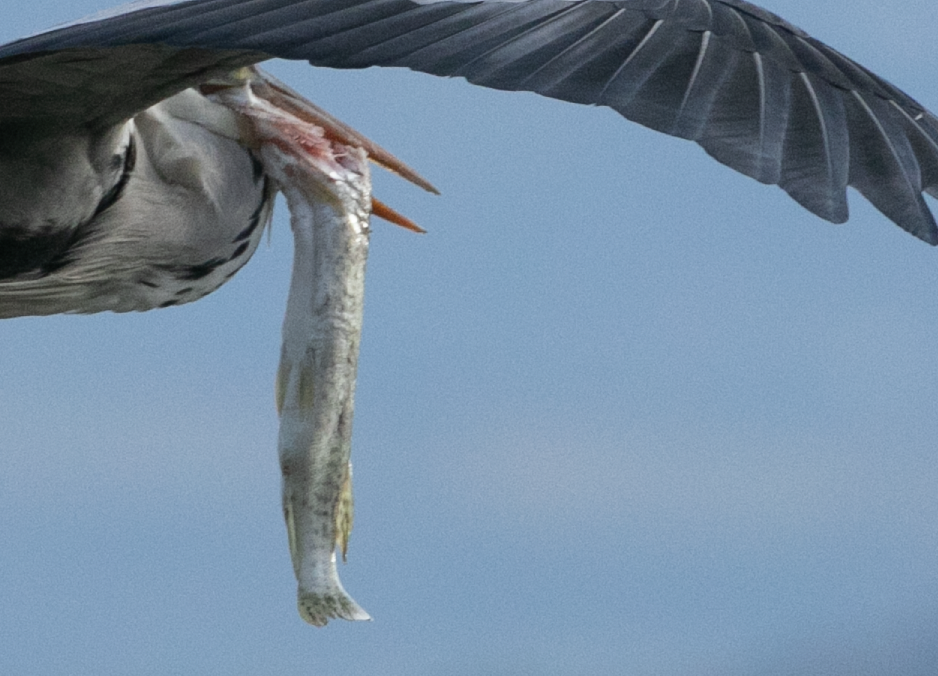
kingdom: Animalia
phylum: Chordata
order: Esociformes
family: Esocidae
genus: Esox
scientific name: Esox lucius
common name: Northern pike
